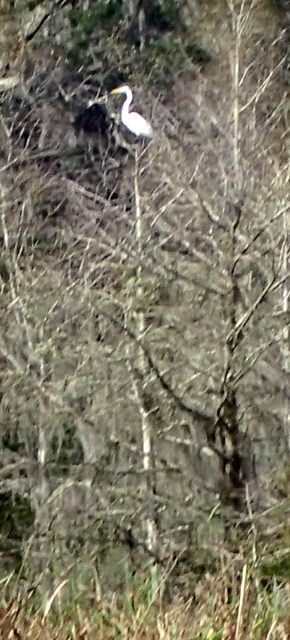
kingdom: Animalia
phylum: Chordata
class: Aves
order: Pelecaniformes
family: Ardeidae
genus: Ardea
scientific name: Ardea alba
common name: Great egret
